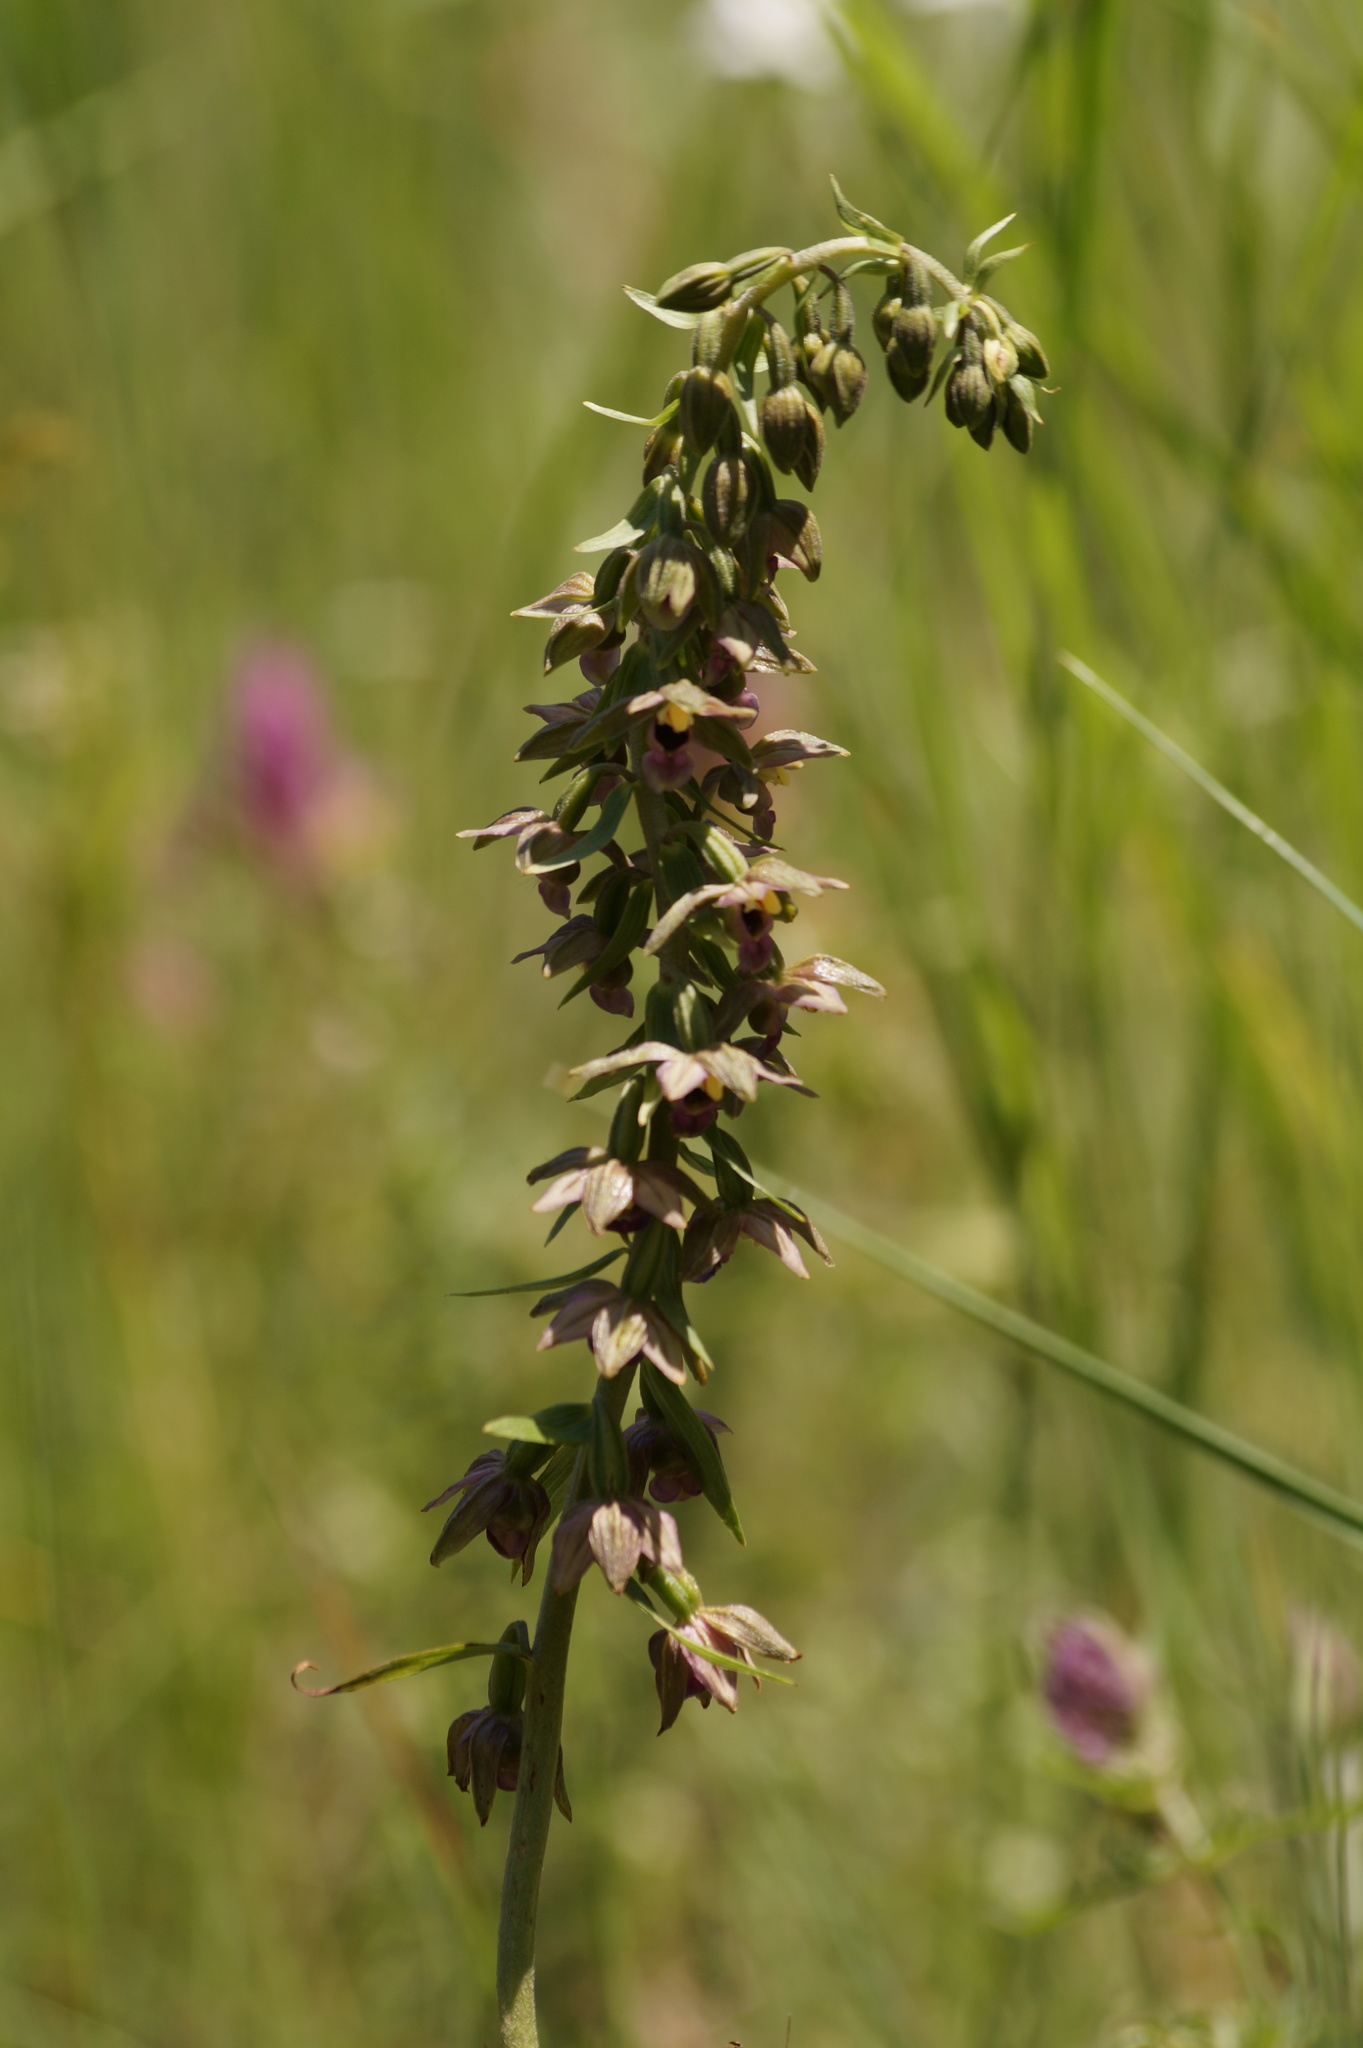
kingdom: Plantae
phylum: Tracheophyta
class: Liliopsida
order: Asparagales
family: Orchidaceae
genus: Epipactis
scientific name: Epipactis helleborine
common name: Broad-leaved helleborine
